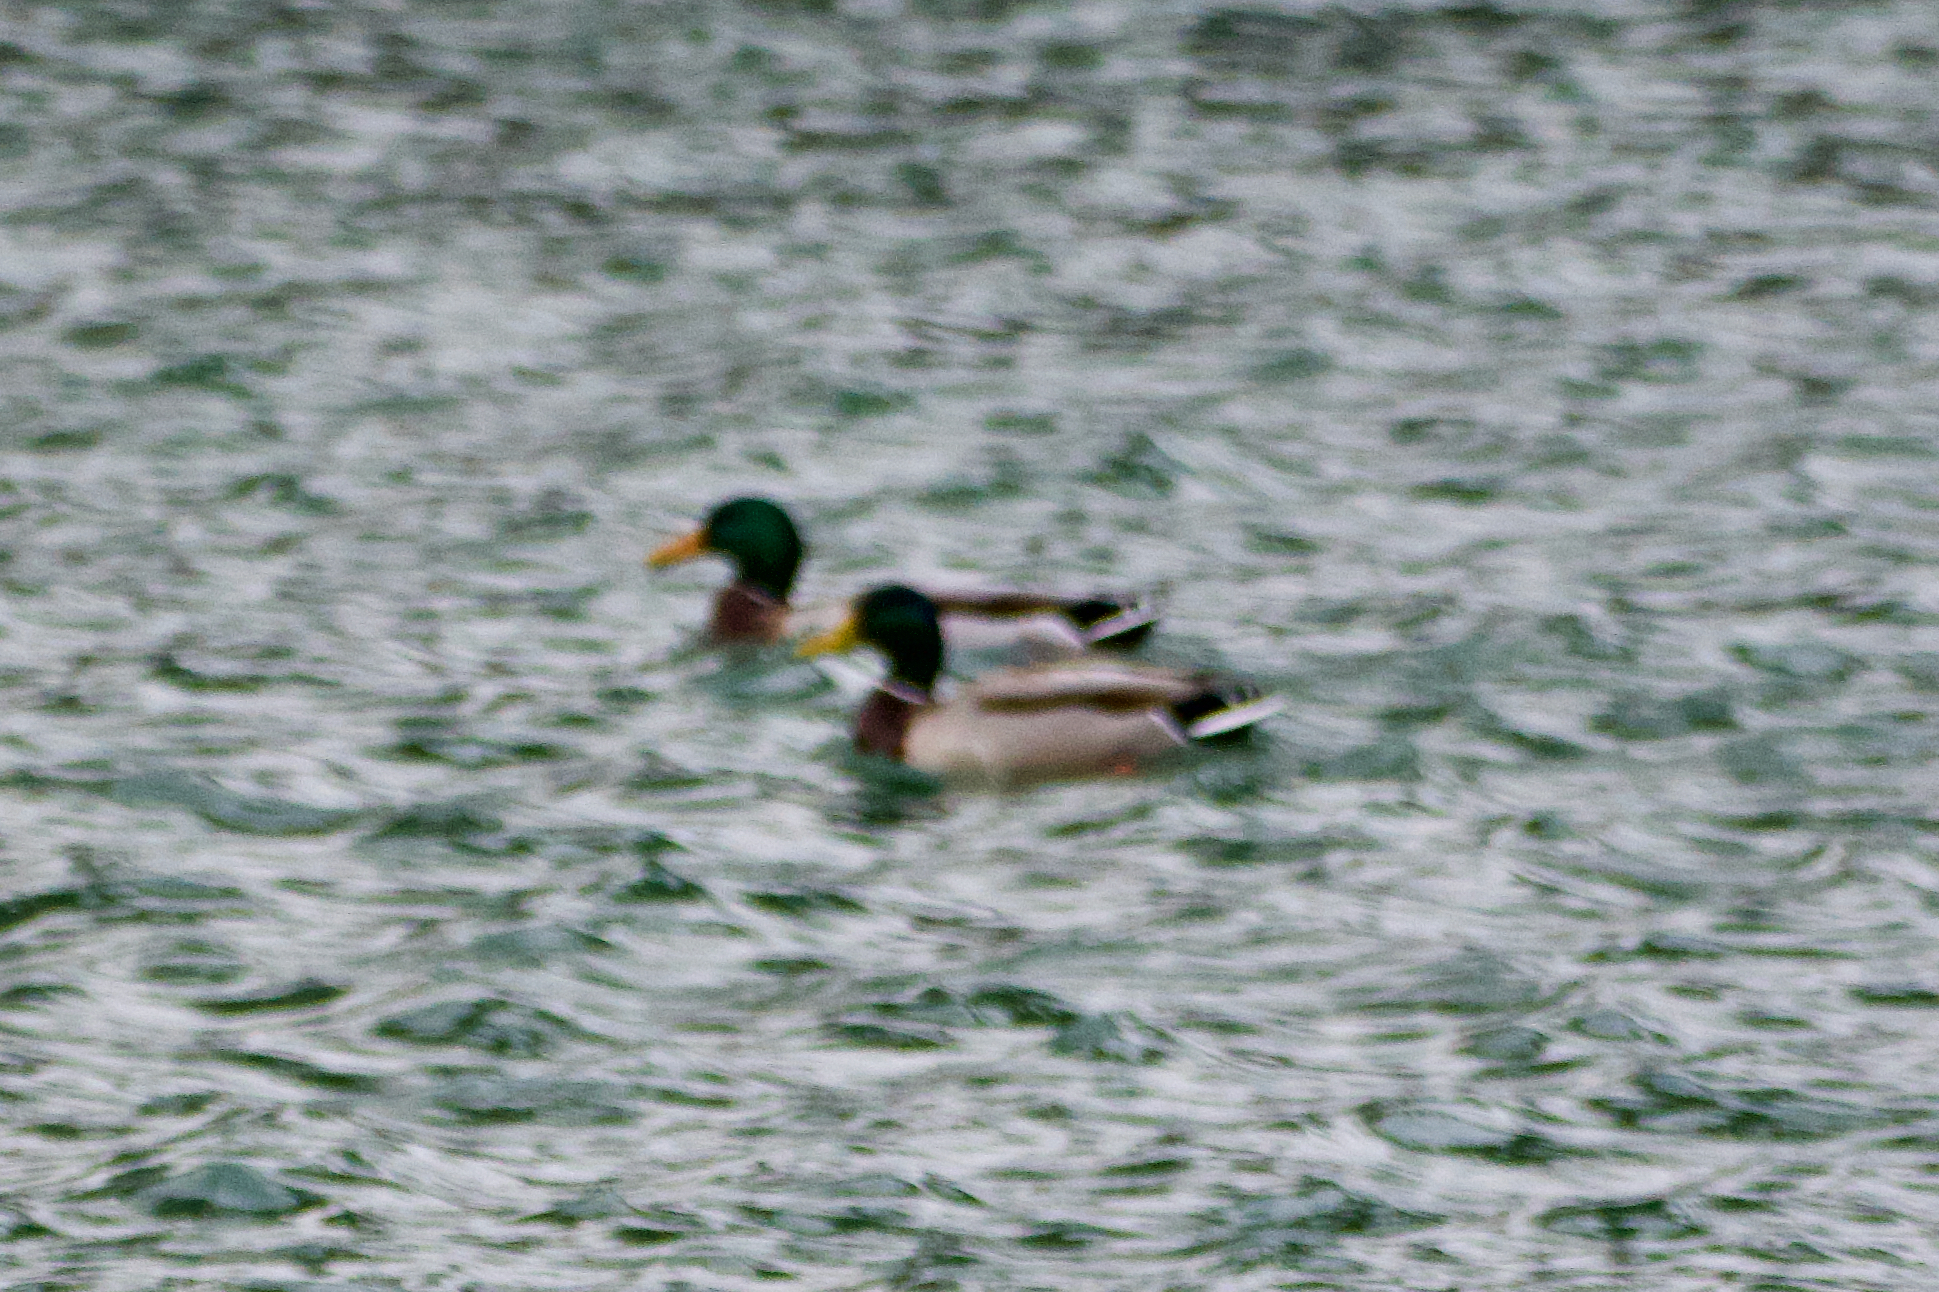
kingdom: Animalia
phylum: Chordata
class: Aves
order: Anseriformes
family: Anatidae
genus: Anas
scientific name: Anas platyrhynchos
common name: Mallard
